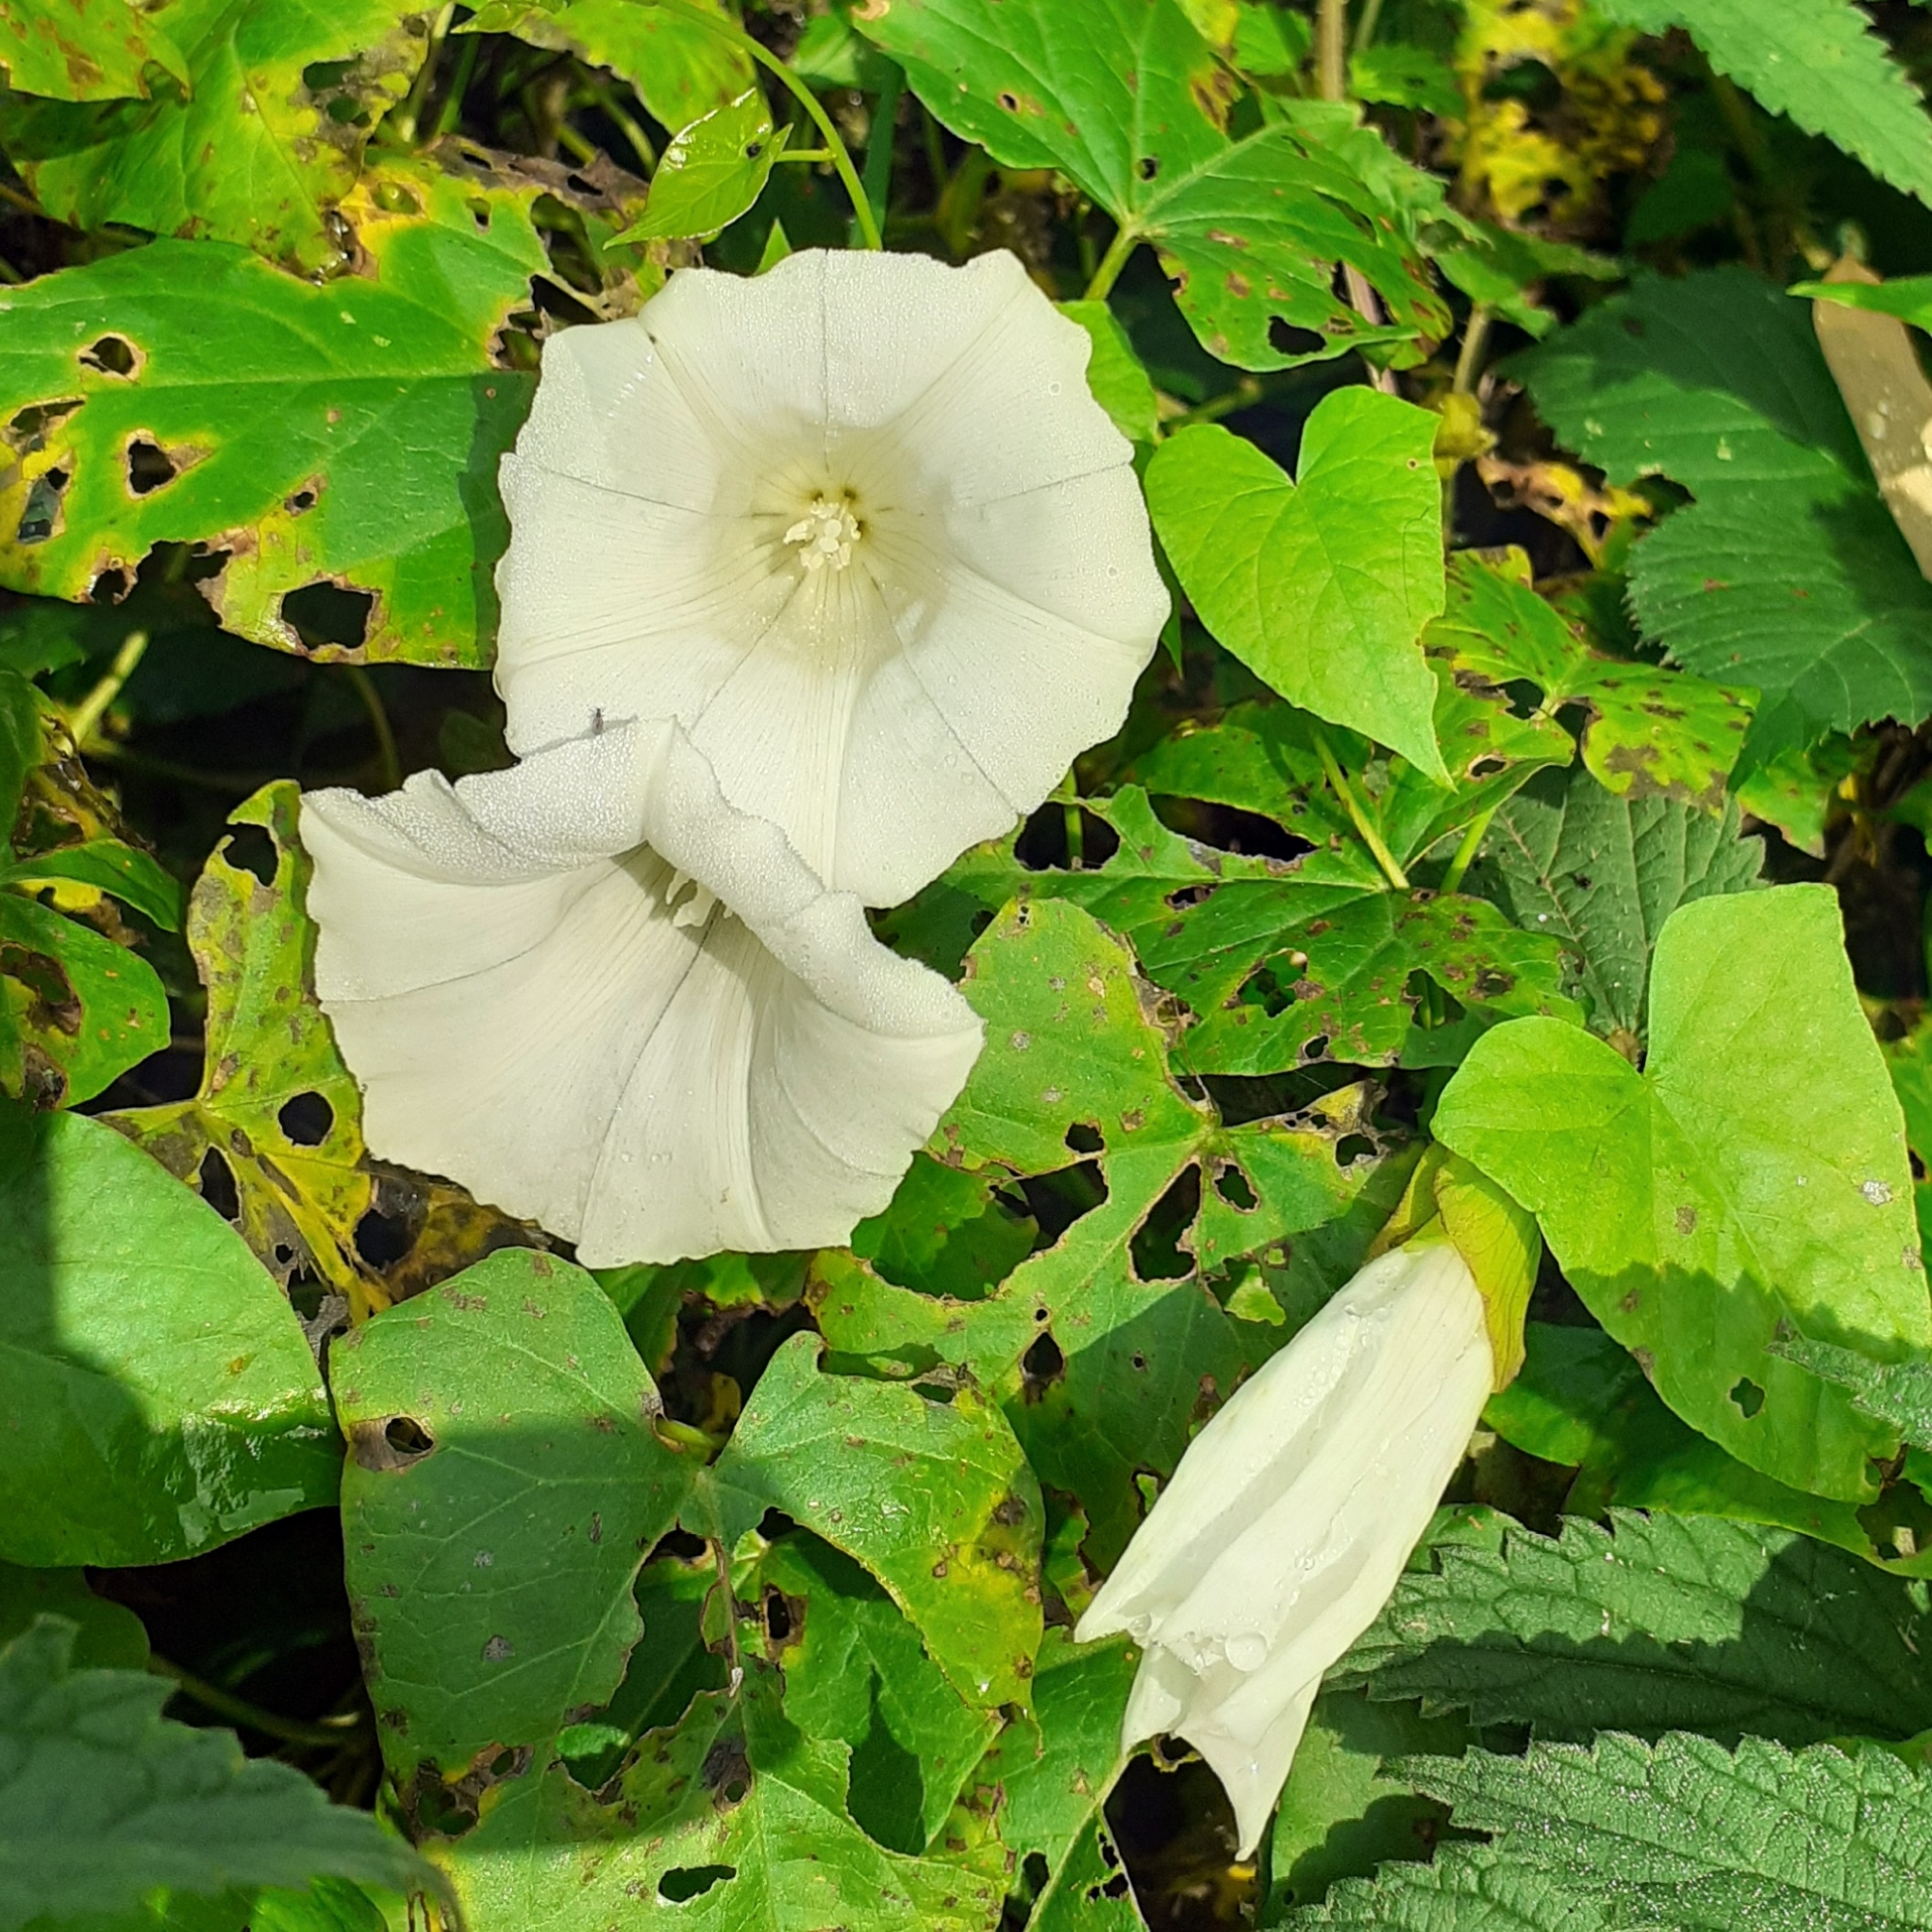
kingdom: Plantae
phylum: Tracheophyta
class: Magnoliopsida
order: Solanales
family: Convolvulaceae
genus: Calystegia
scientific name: Calystegia sepium
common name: Hedge bindweed
